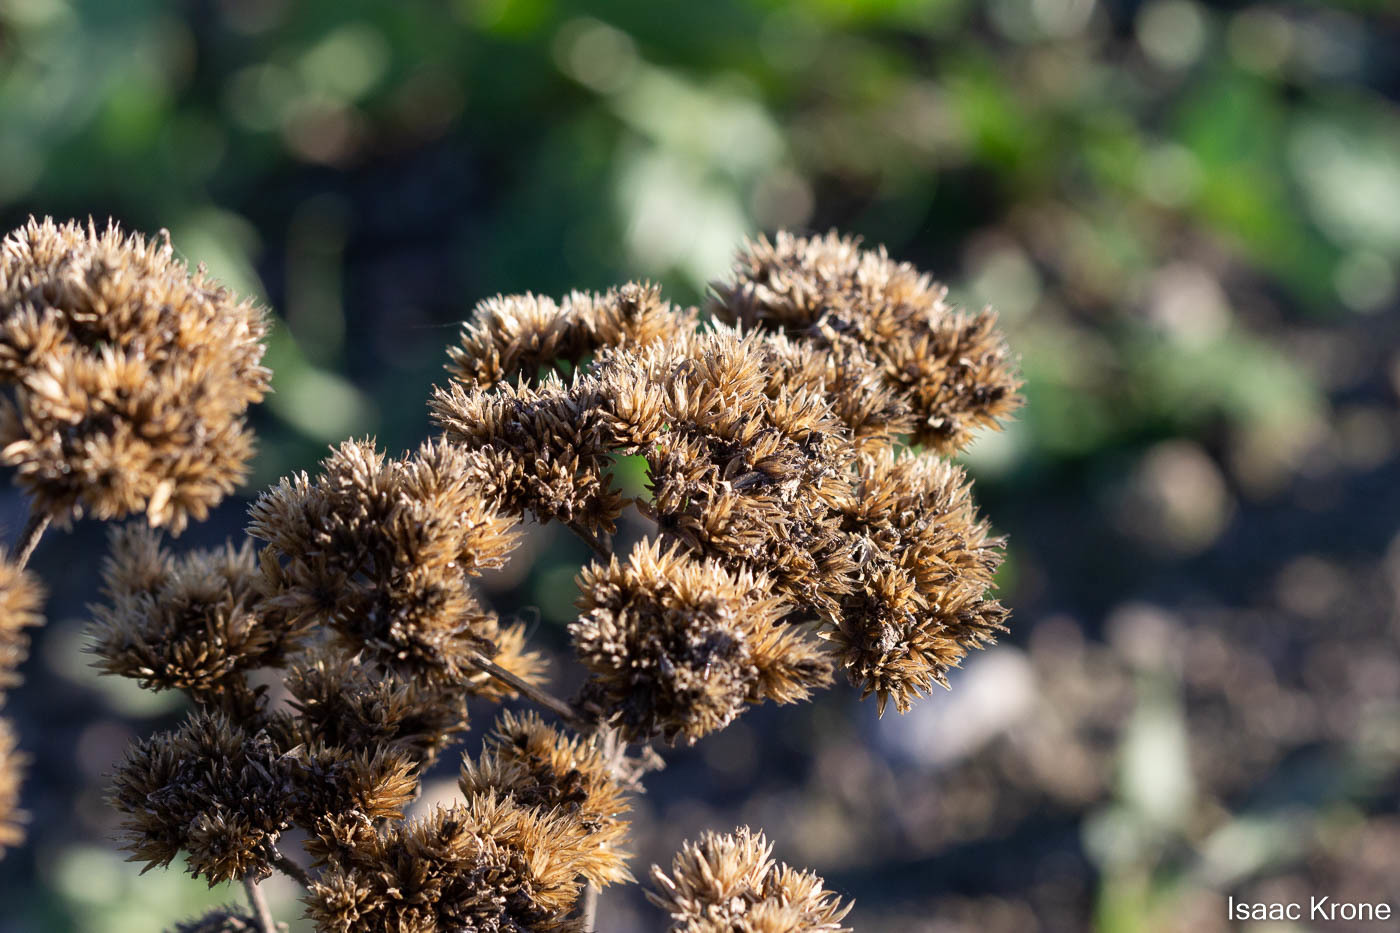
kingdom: Plantae
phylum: Tracheophyta
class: Magnoliopsida
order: Asterales
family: Asteraceae
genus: Achillea
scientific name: Achillea millefolium
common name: Yarrow
